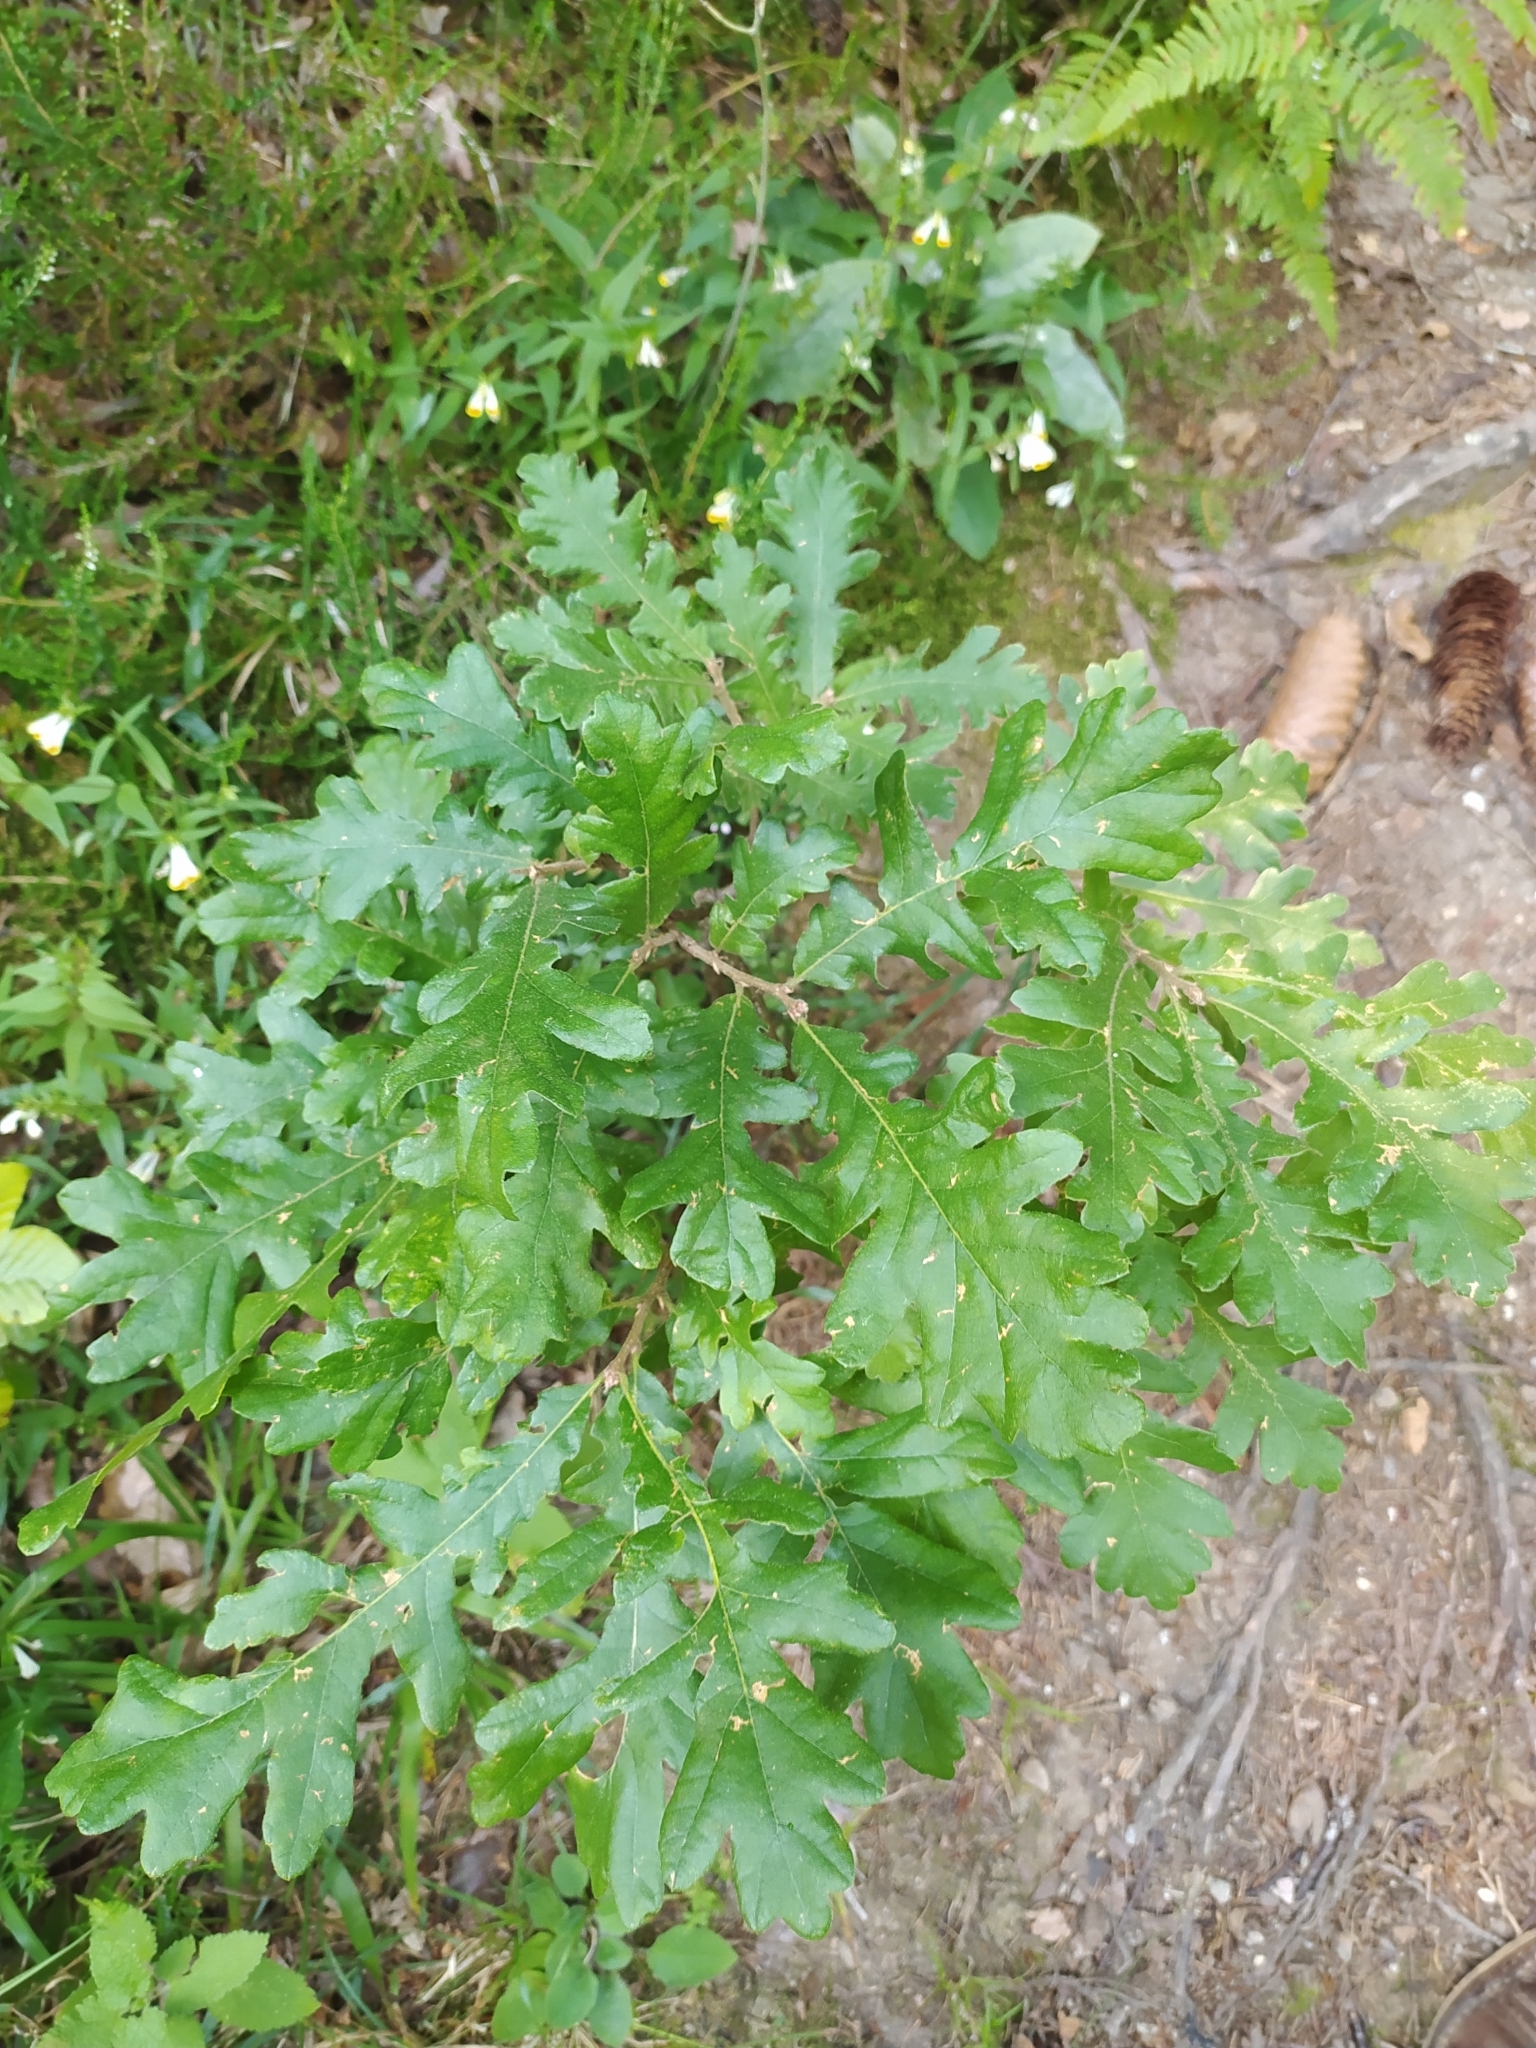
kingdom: Plantae
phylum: Tracheophyta
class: Magnoliopsida
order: Fagales
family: Fagaceae
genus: Quercus
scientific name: Quercus cerris
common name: Turkey oak
